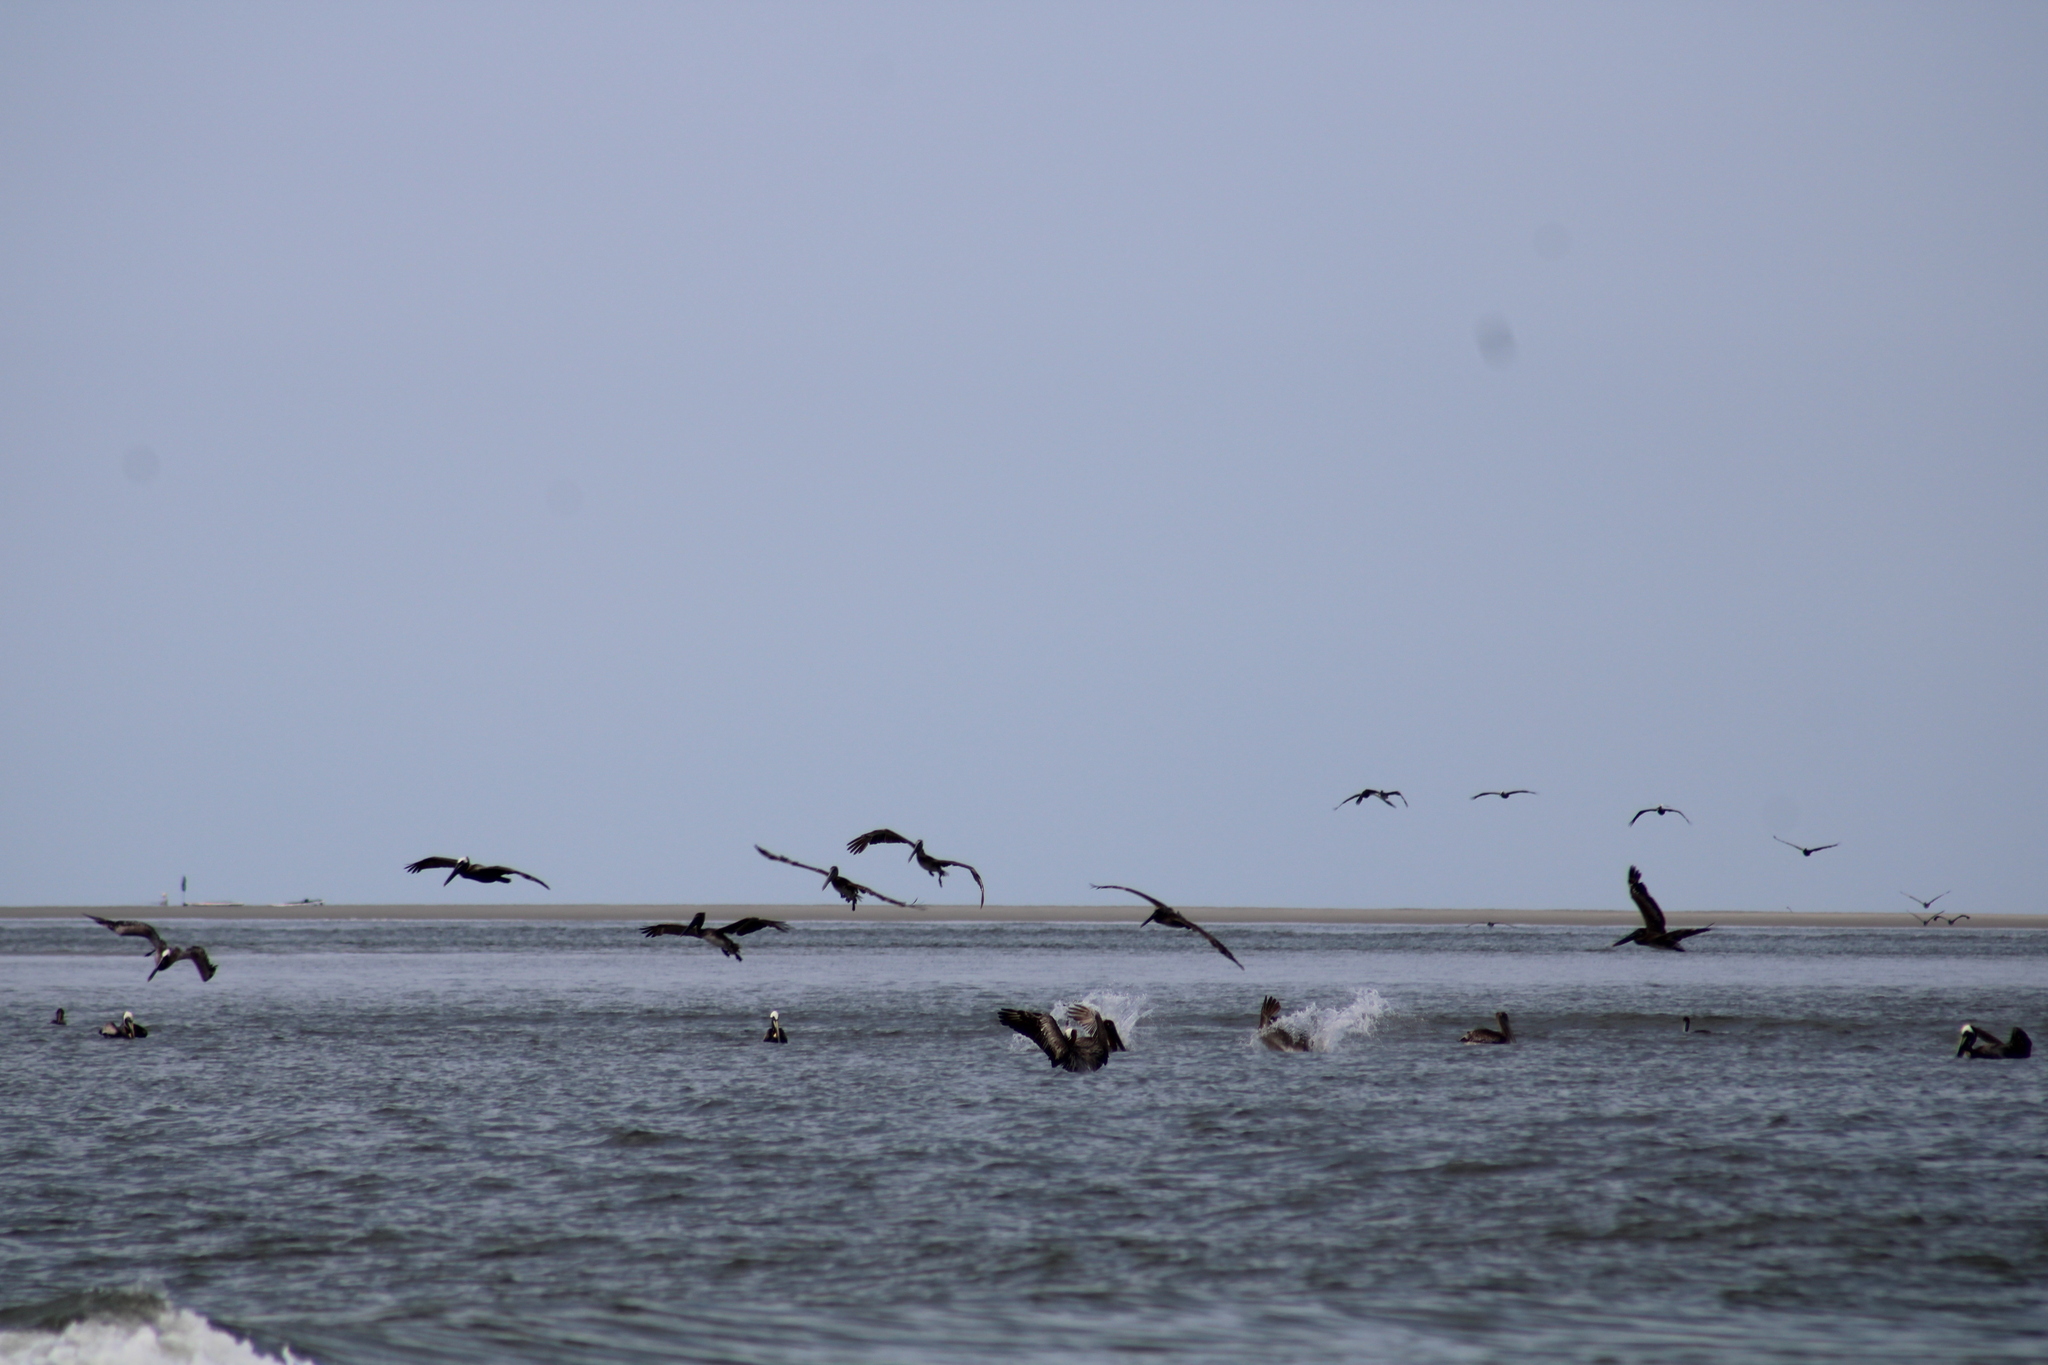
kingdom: Animalia
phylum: Chordata
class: Aves
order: Pelecaniformes
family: Pelecanidae
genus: Pelecanus
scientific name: Pelecanus occidentalis
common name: Brown pelican
